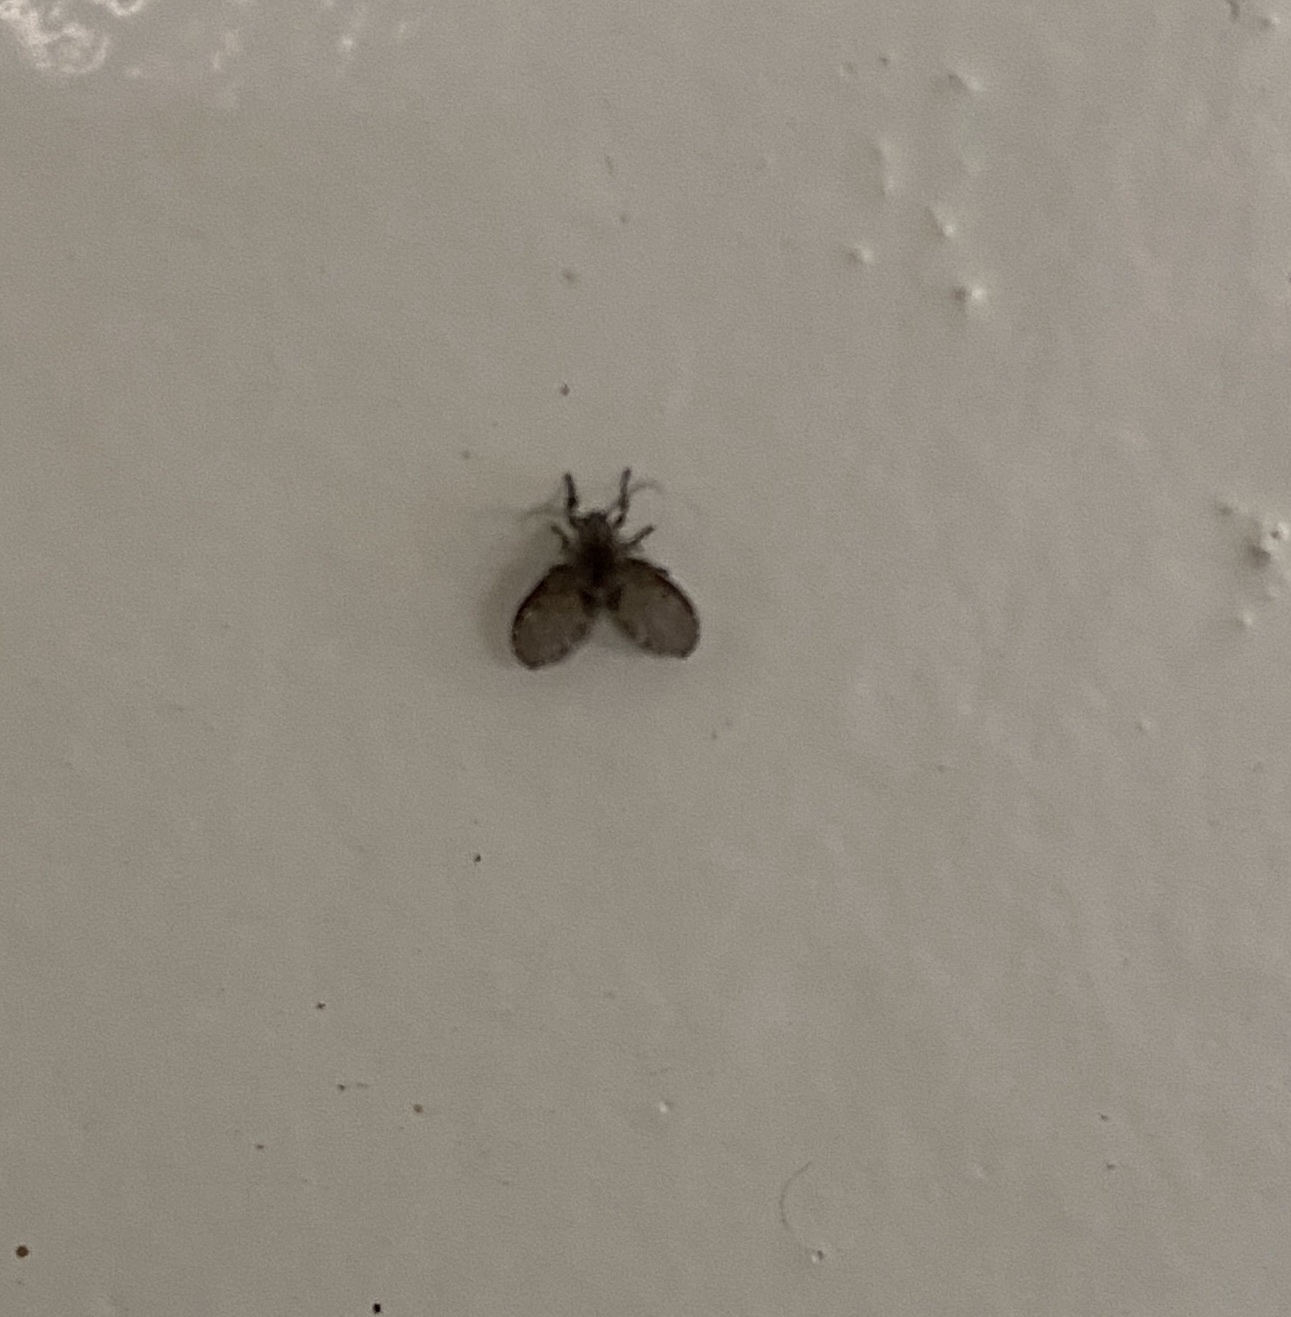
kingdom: Animalia
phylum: Arthropoda
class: Insecta
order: Diptera
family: Psychodidae
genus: Clogmia
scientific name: Clogmia albipunctatus
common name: White-spotted moth fly
